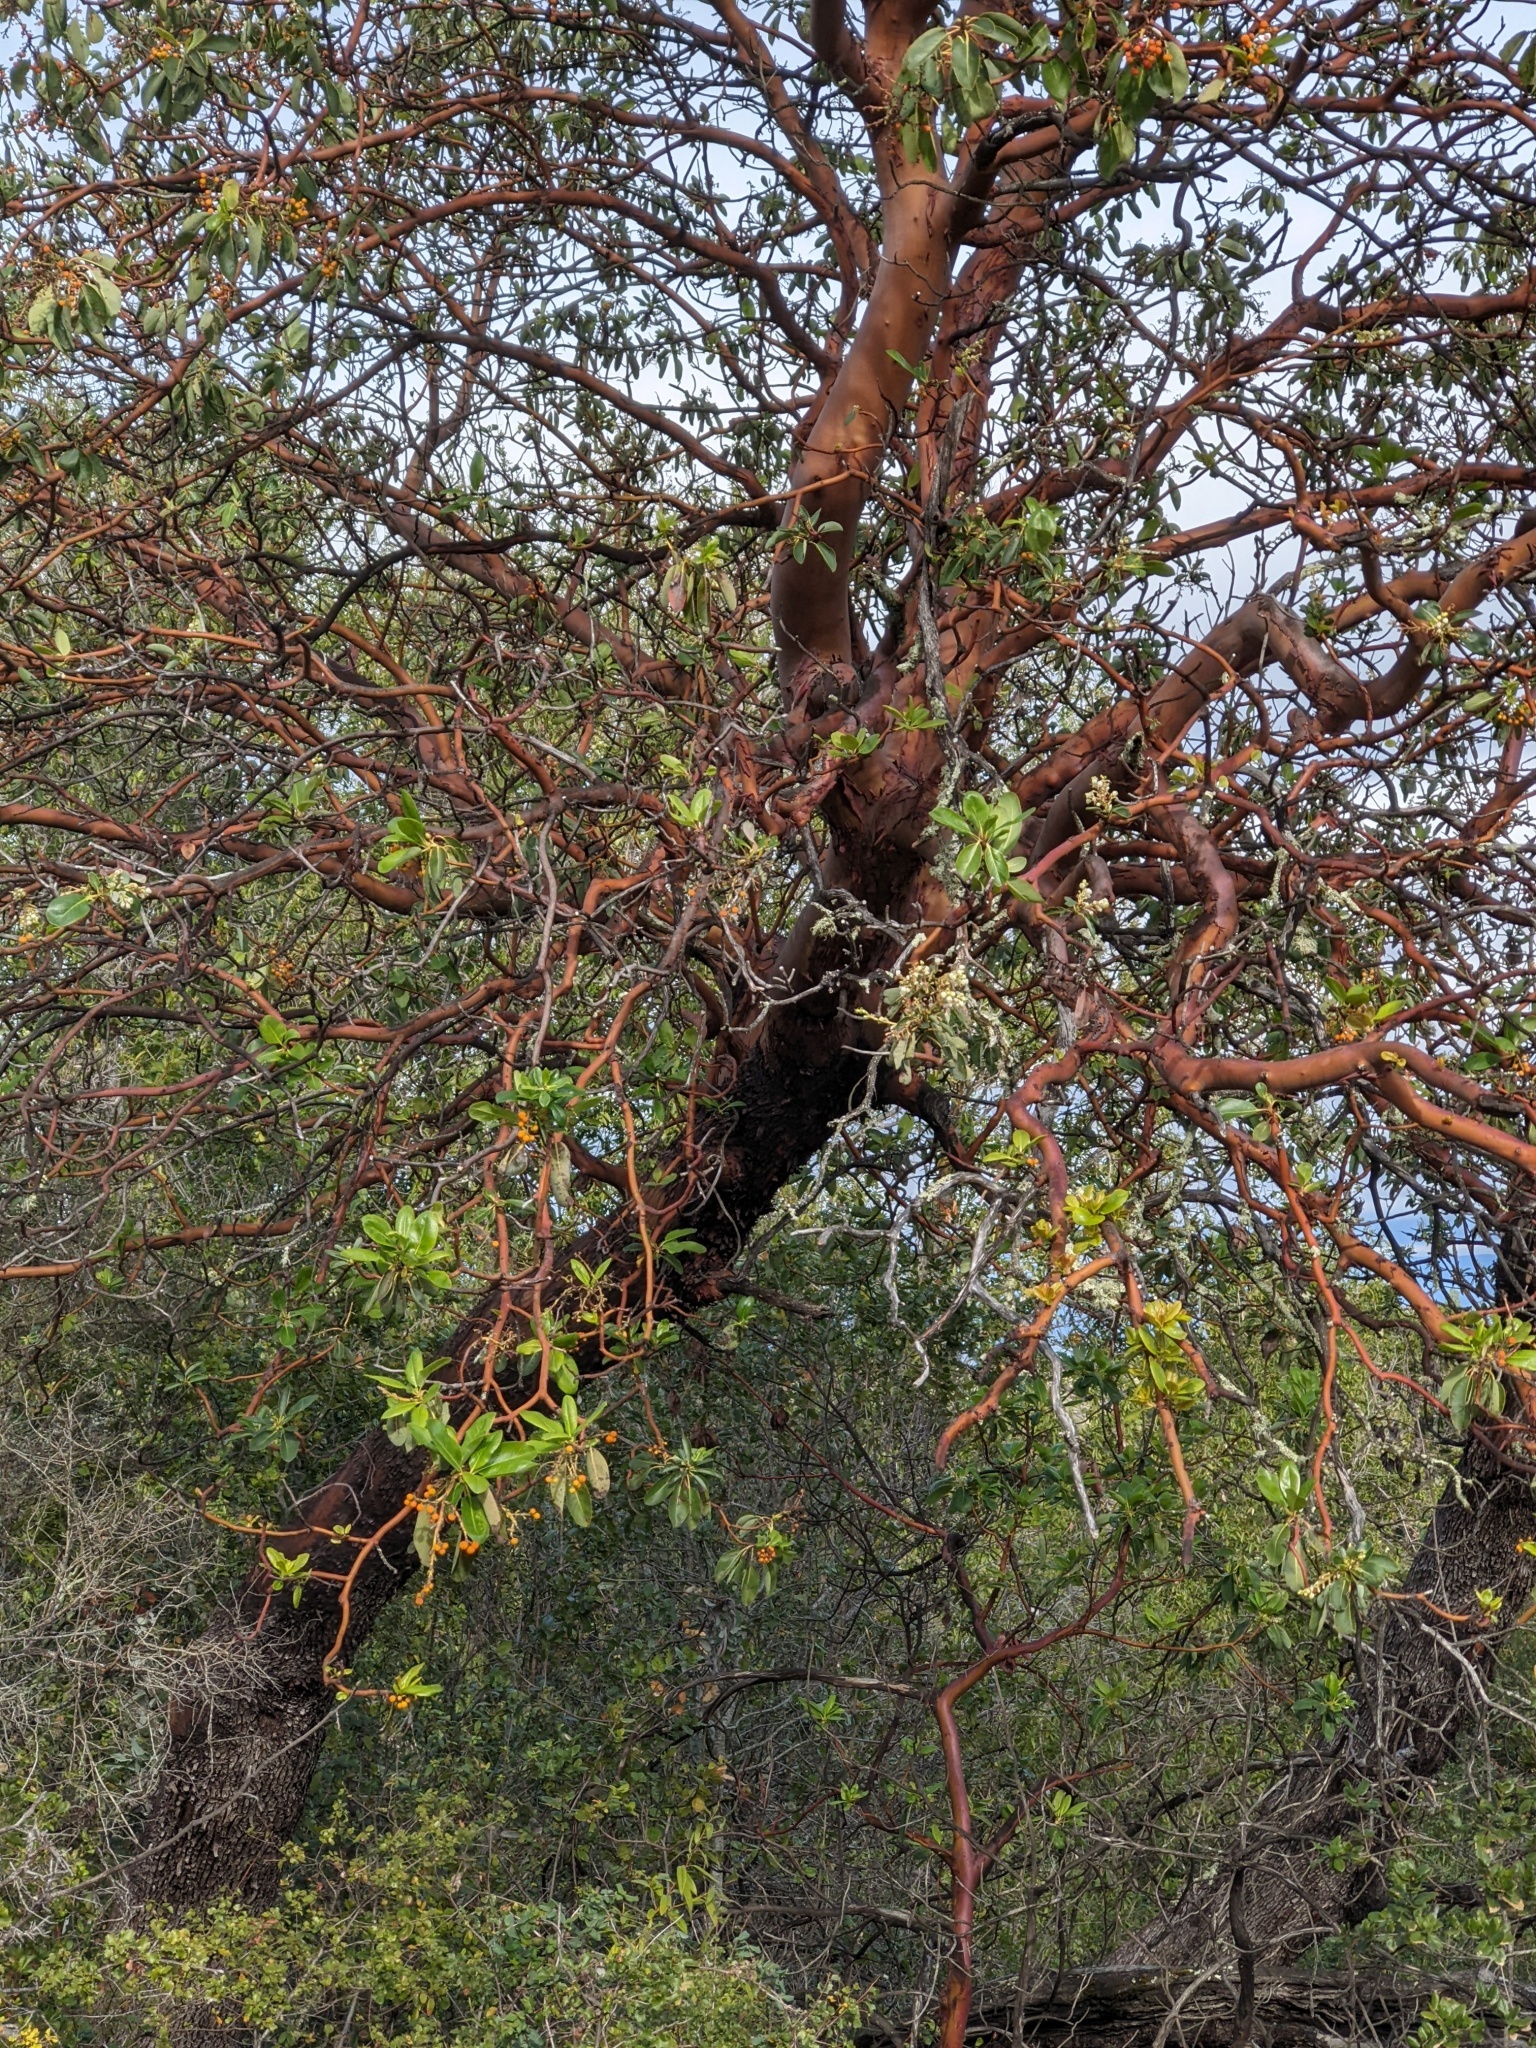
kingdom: Plantae
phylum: Tracheophyta
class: Magnoliopsida
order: Ericales
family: Ericaceae
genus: Arbutus
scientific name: Arbutus menziesii
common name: Pacific madrone
